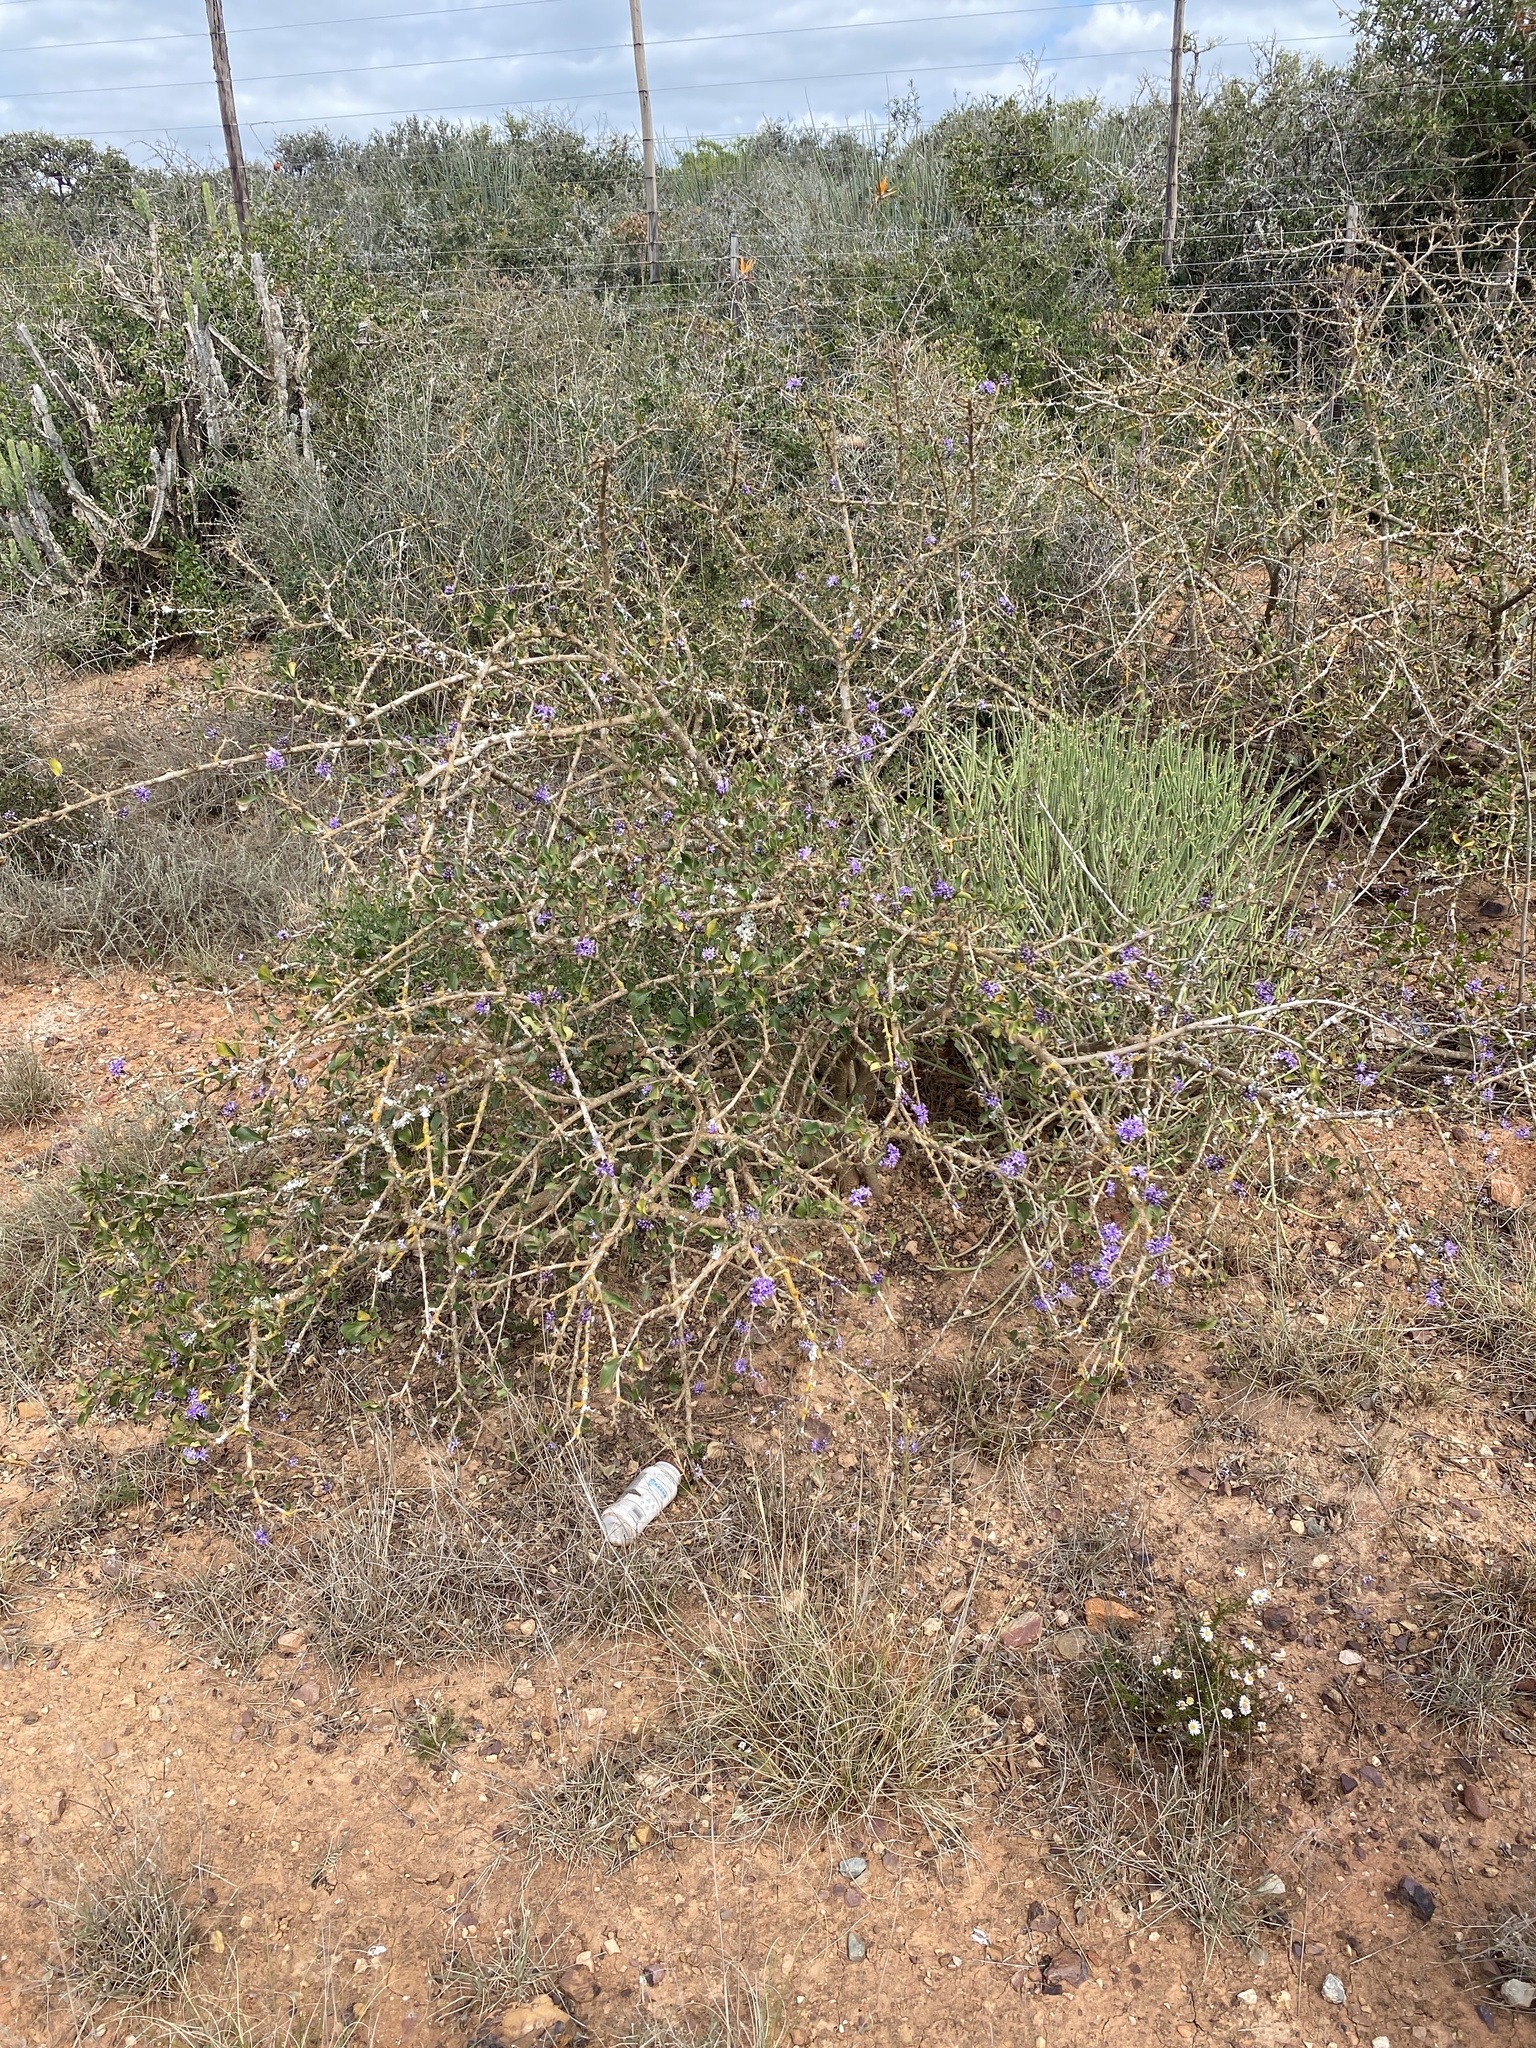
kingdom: Plantae
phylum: Tracheophyta
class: Magnoliopsida
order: Boraginales
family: Ehretiaceae
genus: Ehretia
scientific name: Ehretia rigida
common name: Cape lilac
